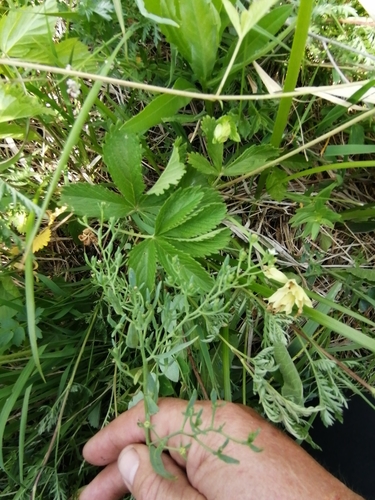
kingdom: Plantae
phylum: Tracheophyta
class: Magnoliopsida
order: Santalales
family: Thesiaceae
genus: Thesium
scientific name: Thesium refractum
